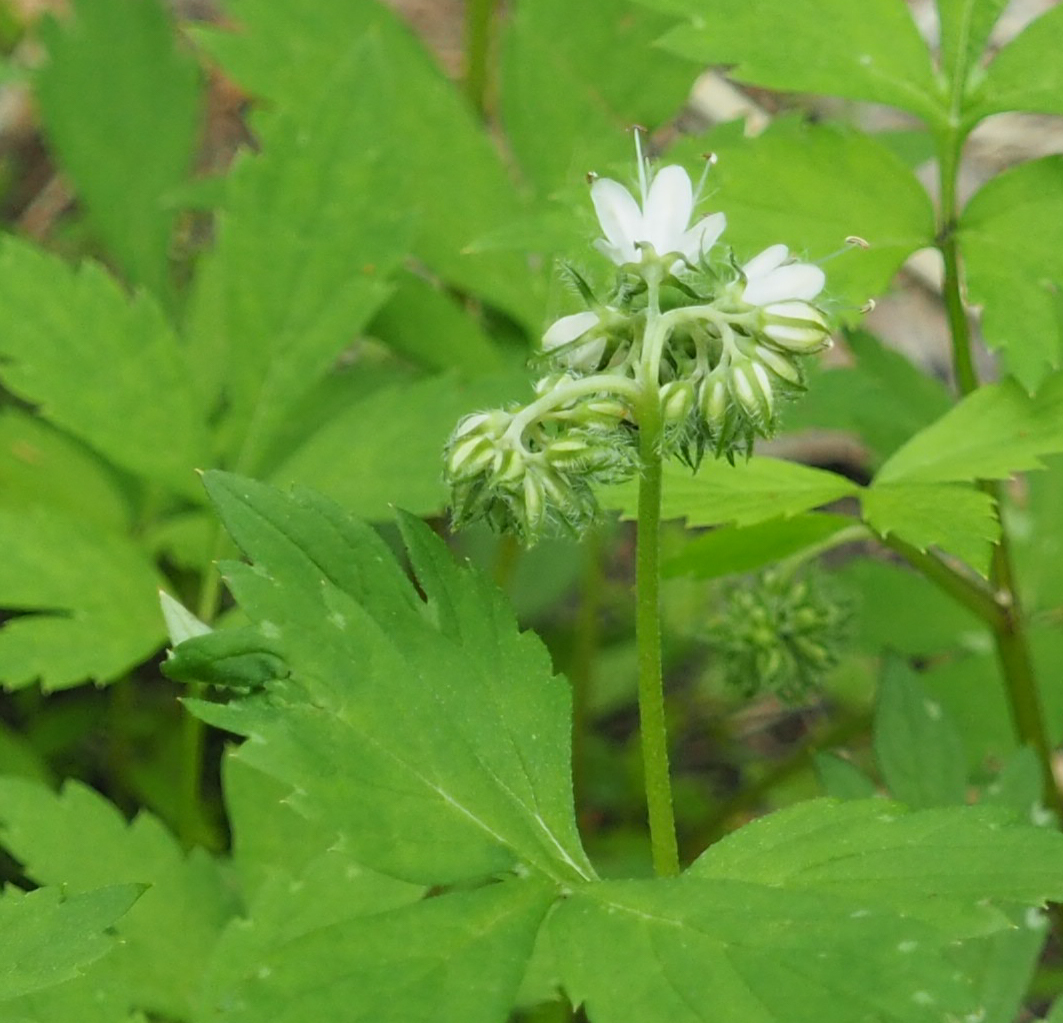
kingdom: Plantae
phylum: Tracheophyta
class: Magnoliopsida
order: Boraginales
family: Hydrophyllaceae
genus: Hydrophyllum
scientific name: Hydrophyllum virginianum
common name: Virginia waterleaf
